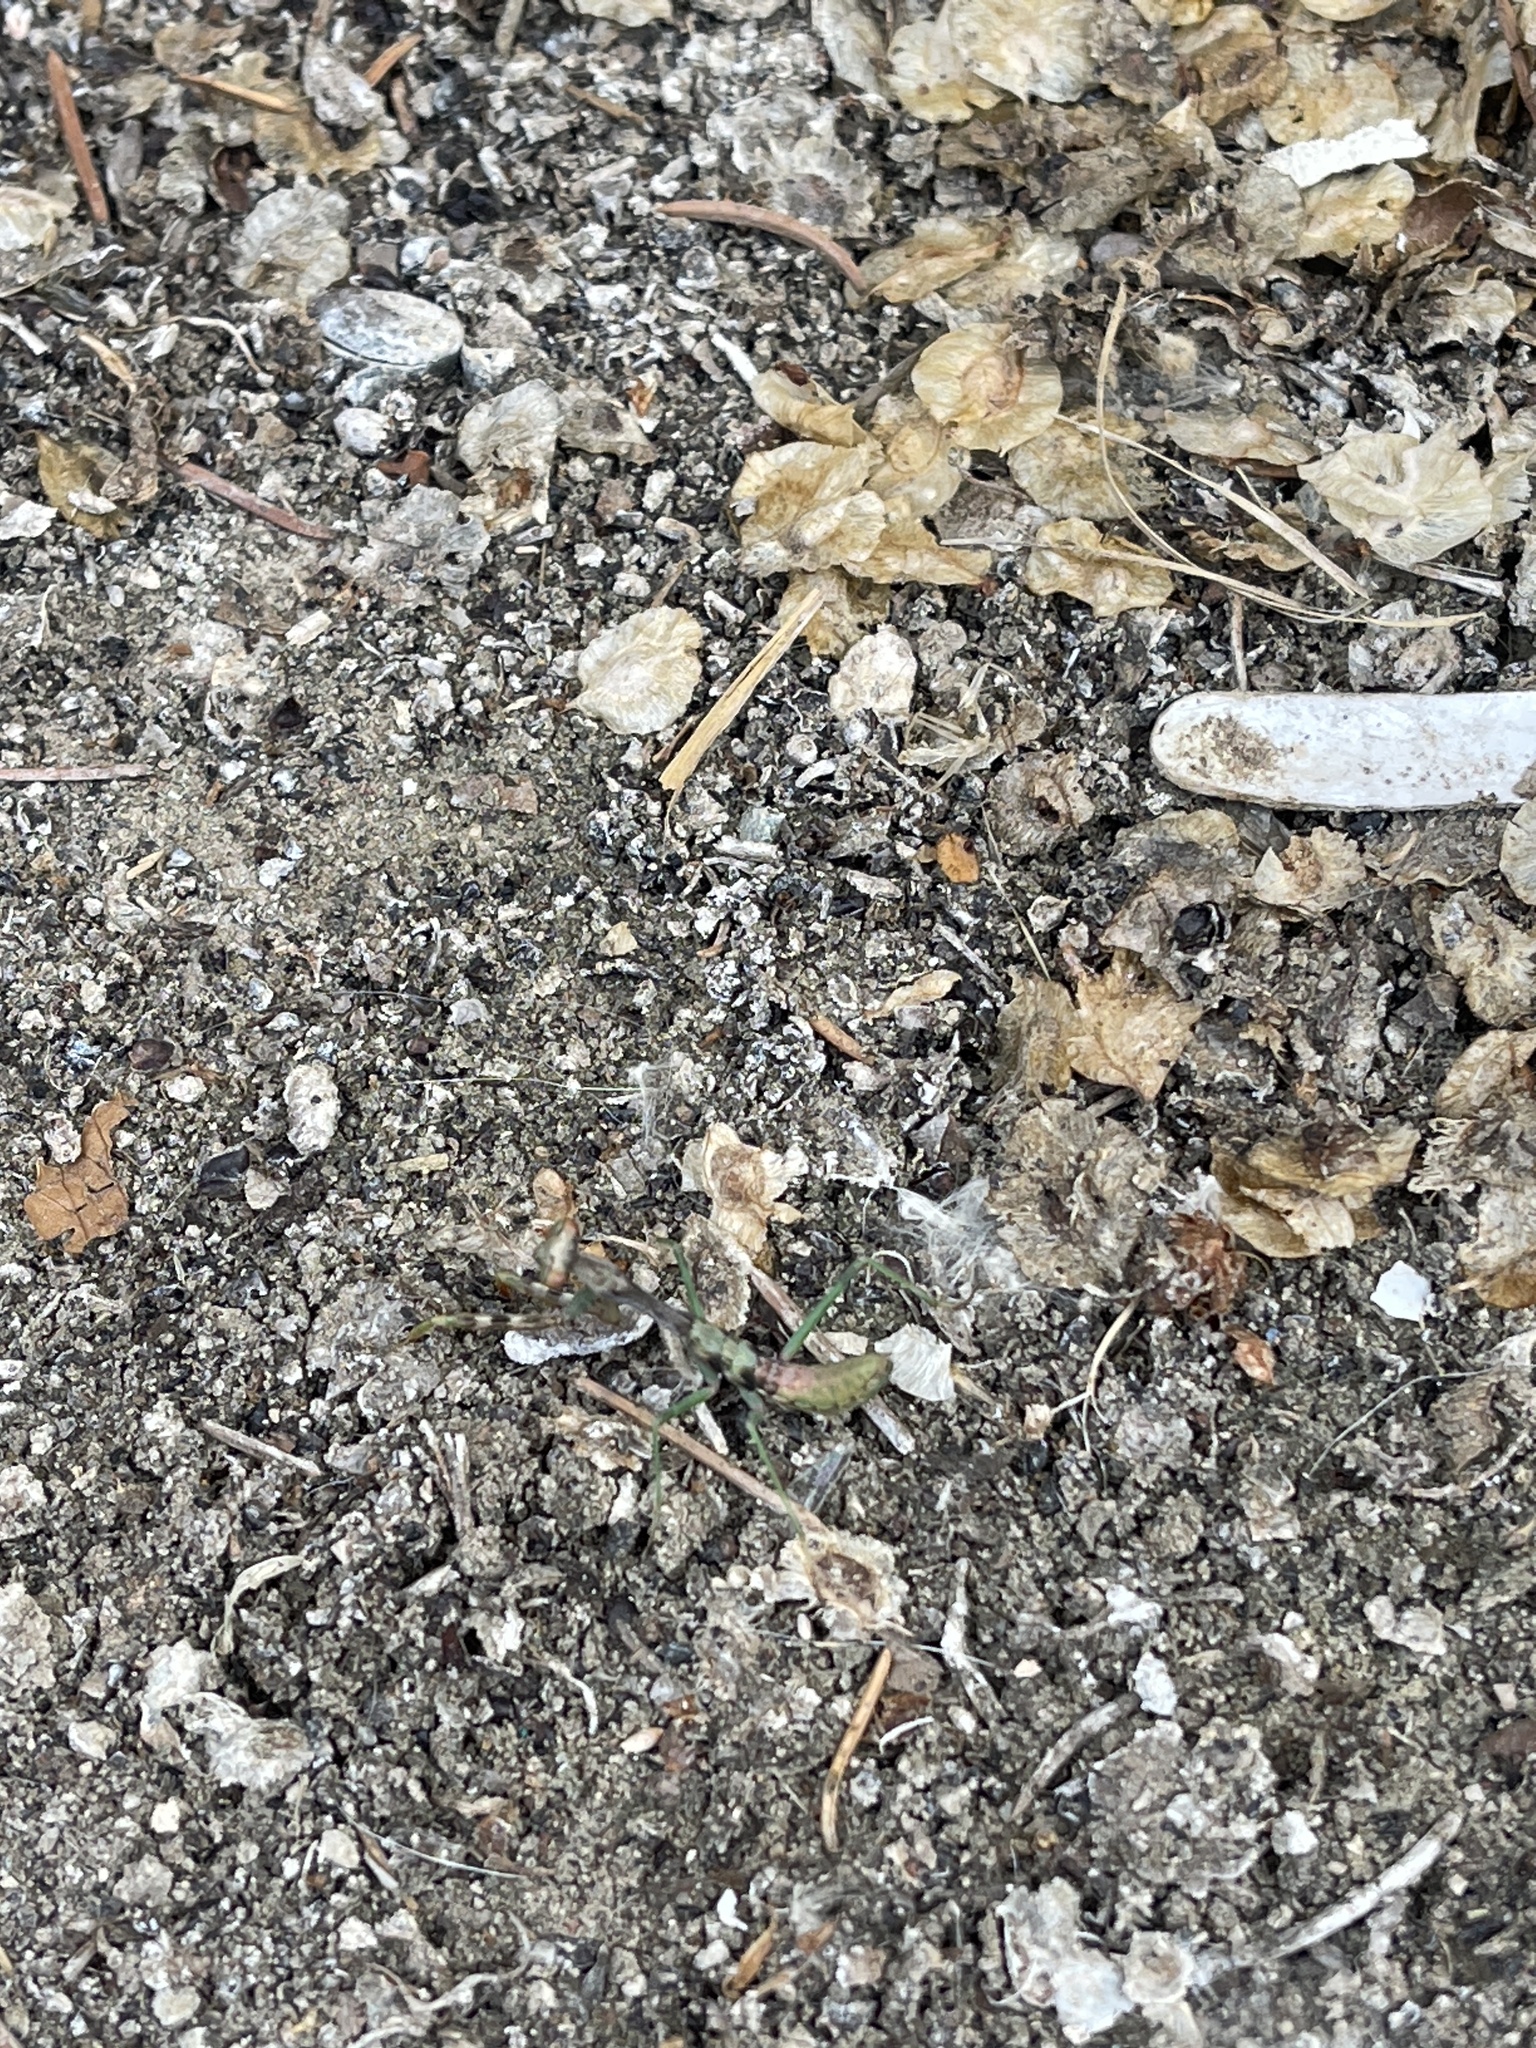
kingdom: Animalia
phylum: Arthropoda
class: Insecta
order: Mantodea
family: Mantidae
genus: Stagmomantis
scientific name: Stagmomantis californica
